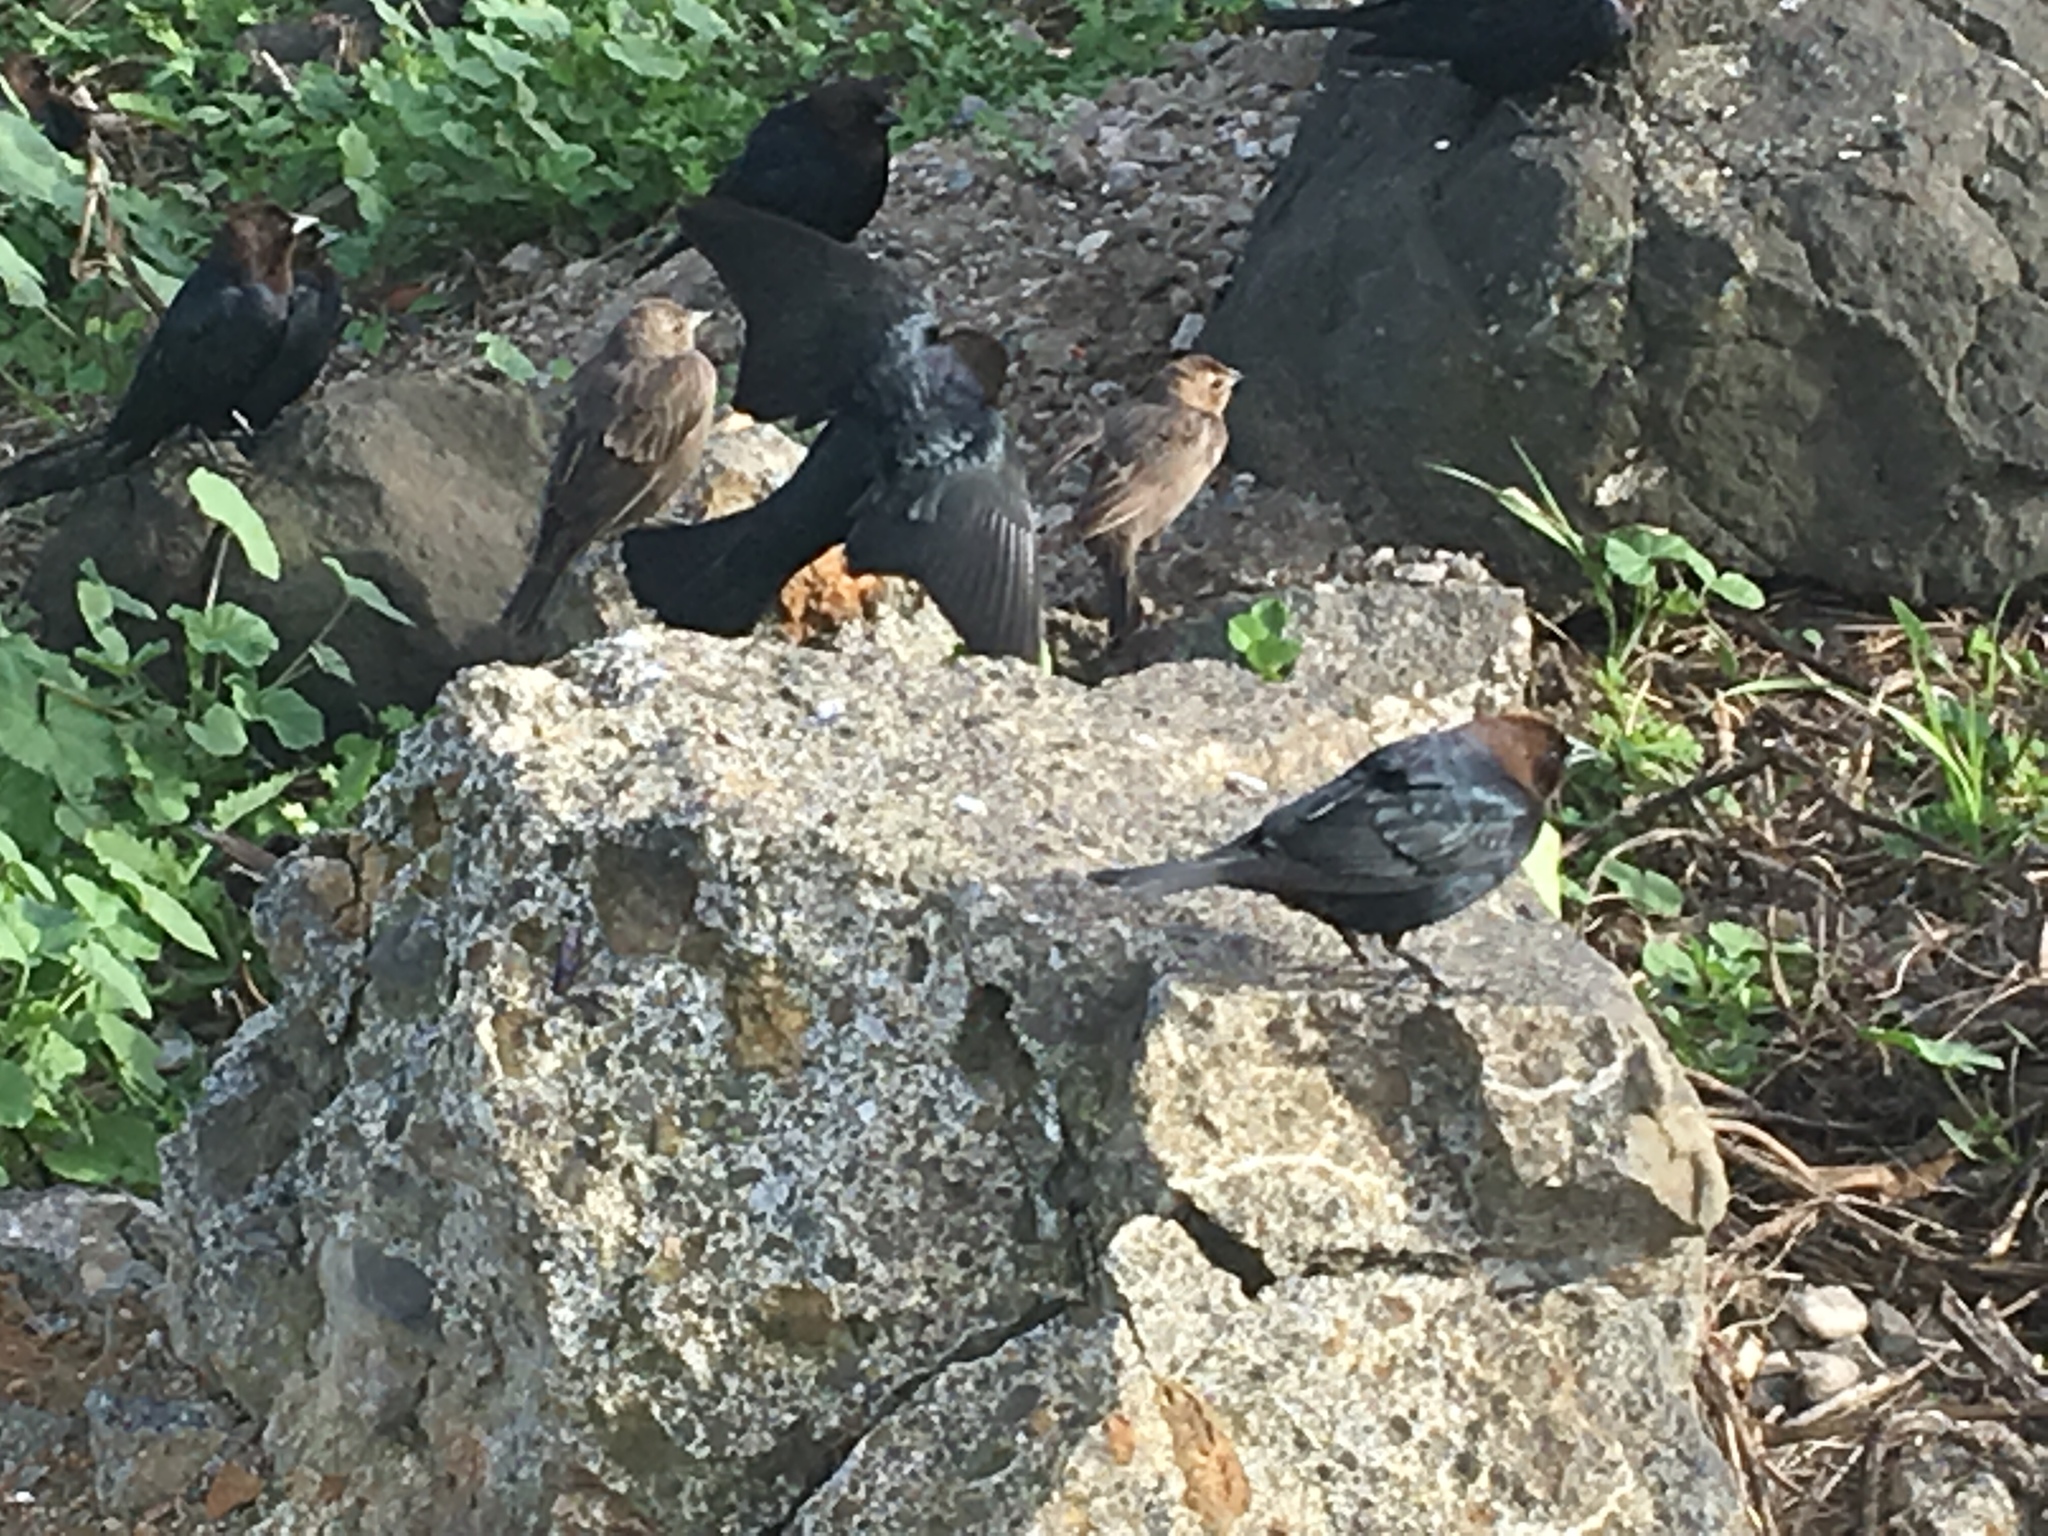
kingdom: Animalia
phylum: Chordata
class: Aves
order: Passeriformes
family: Icteridae
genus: Molothrus
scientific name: Molothrus ater
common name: Brown-headed cowbird
